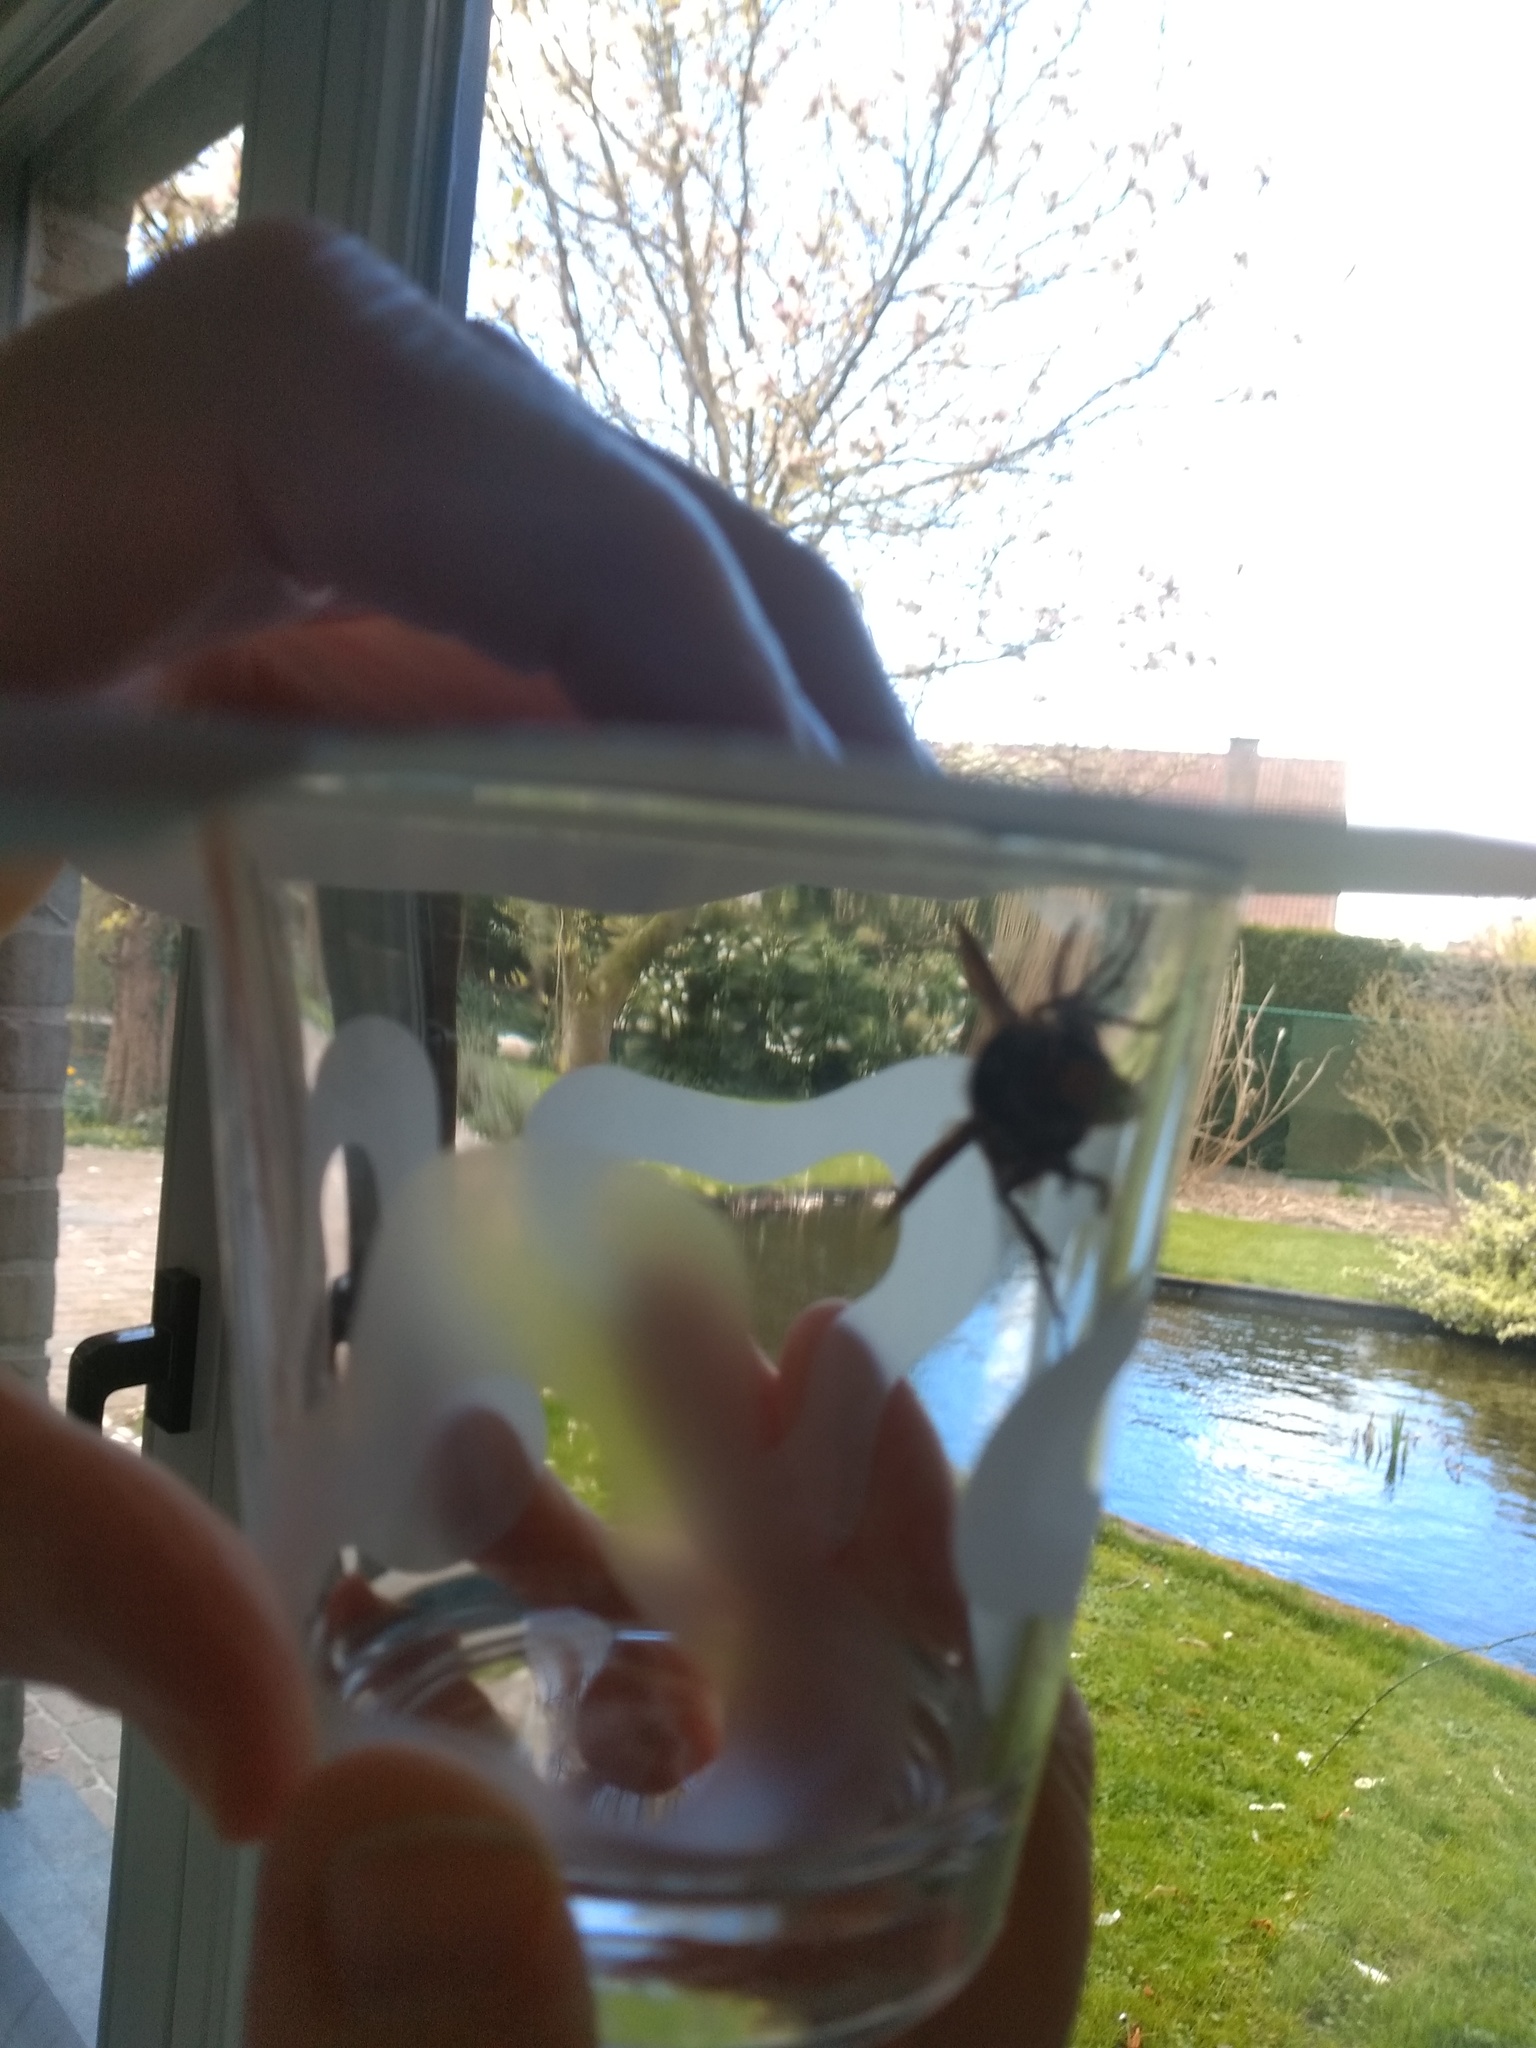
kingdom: Animalia
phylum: Arthropoda
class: Insecta
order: Hymenoptera
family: Vespidae
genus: Vespa
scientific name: Vespa crabro
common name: Hornet
